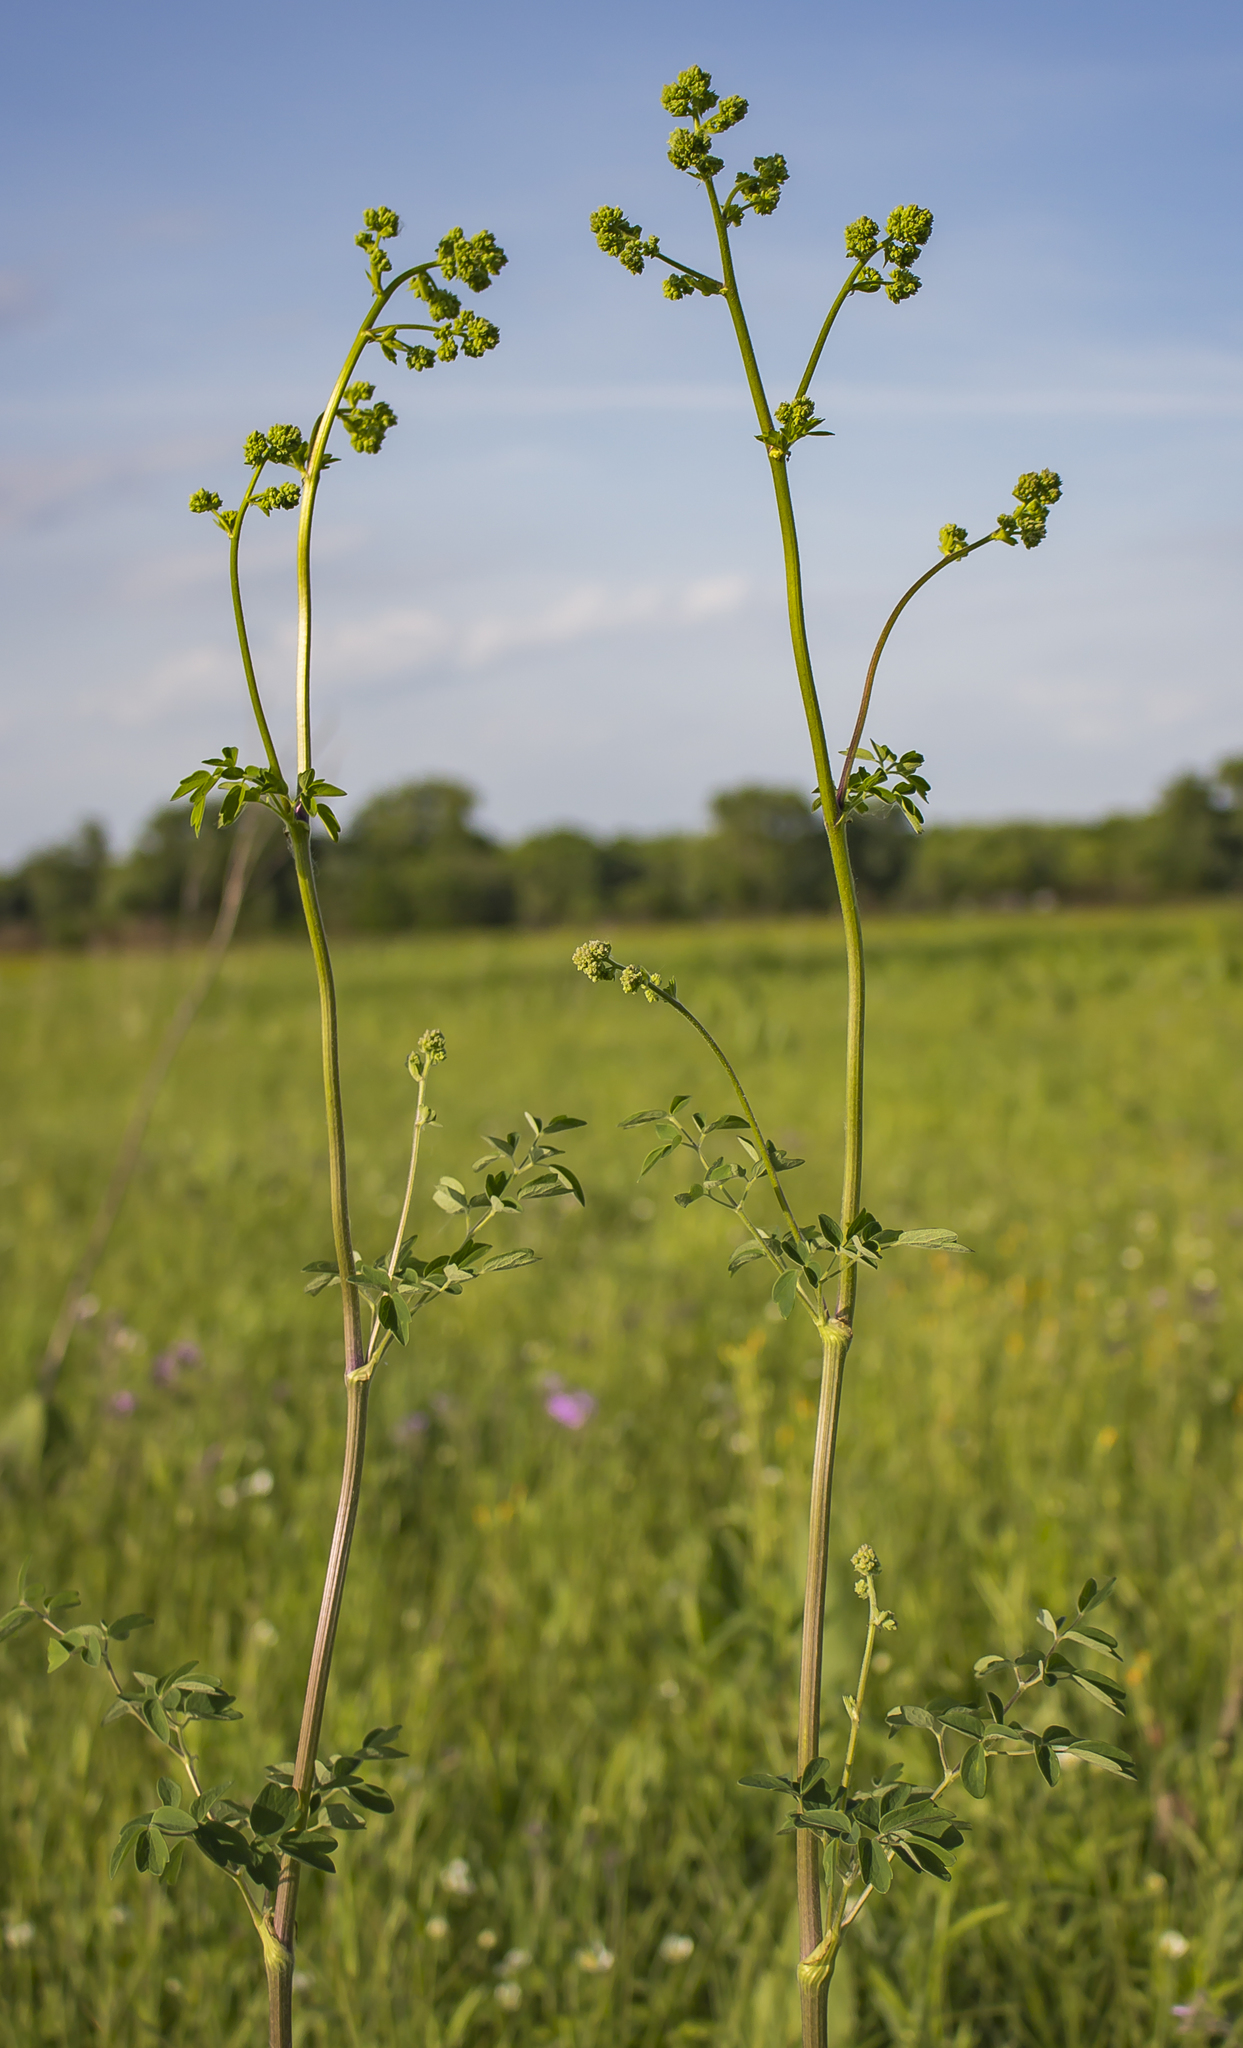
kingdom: Plantae
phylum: Tracheophyta
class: Magnoliopsida
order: Ranunculales
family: Ranunculaceae
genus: Thalictrum
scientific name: Thalictrum dasycarpum
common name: Purple meadow-rue
